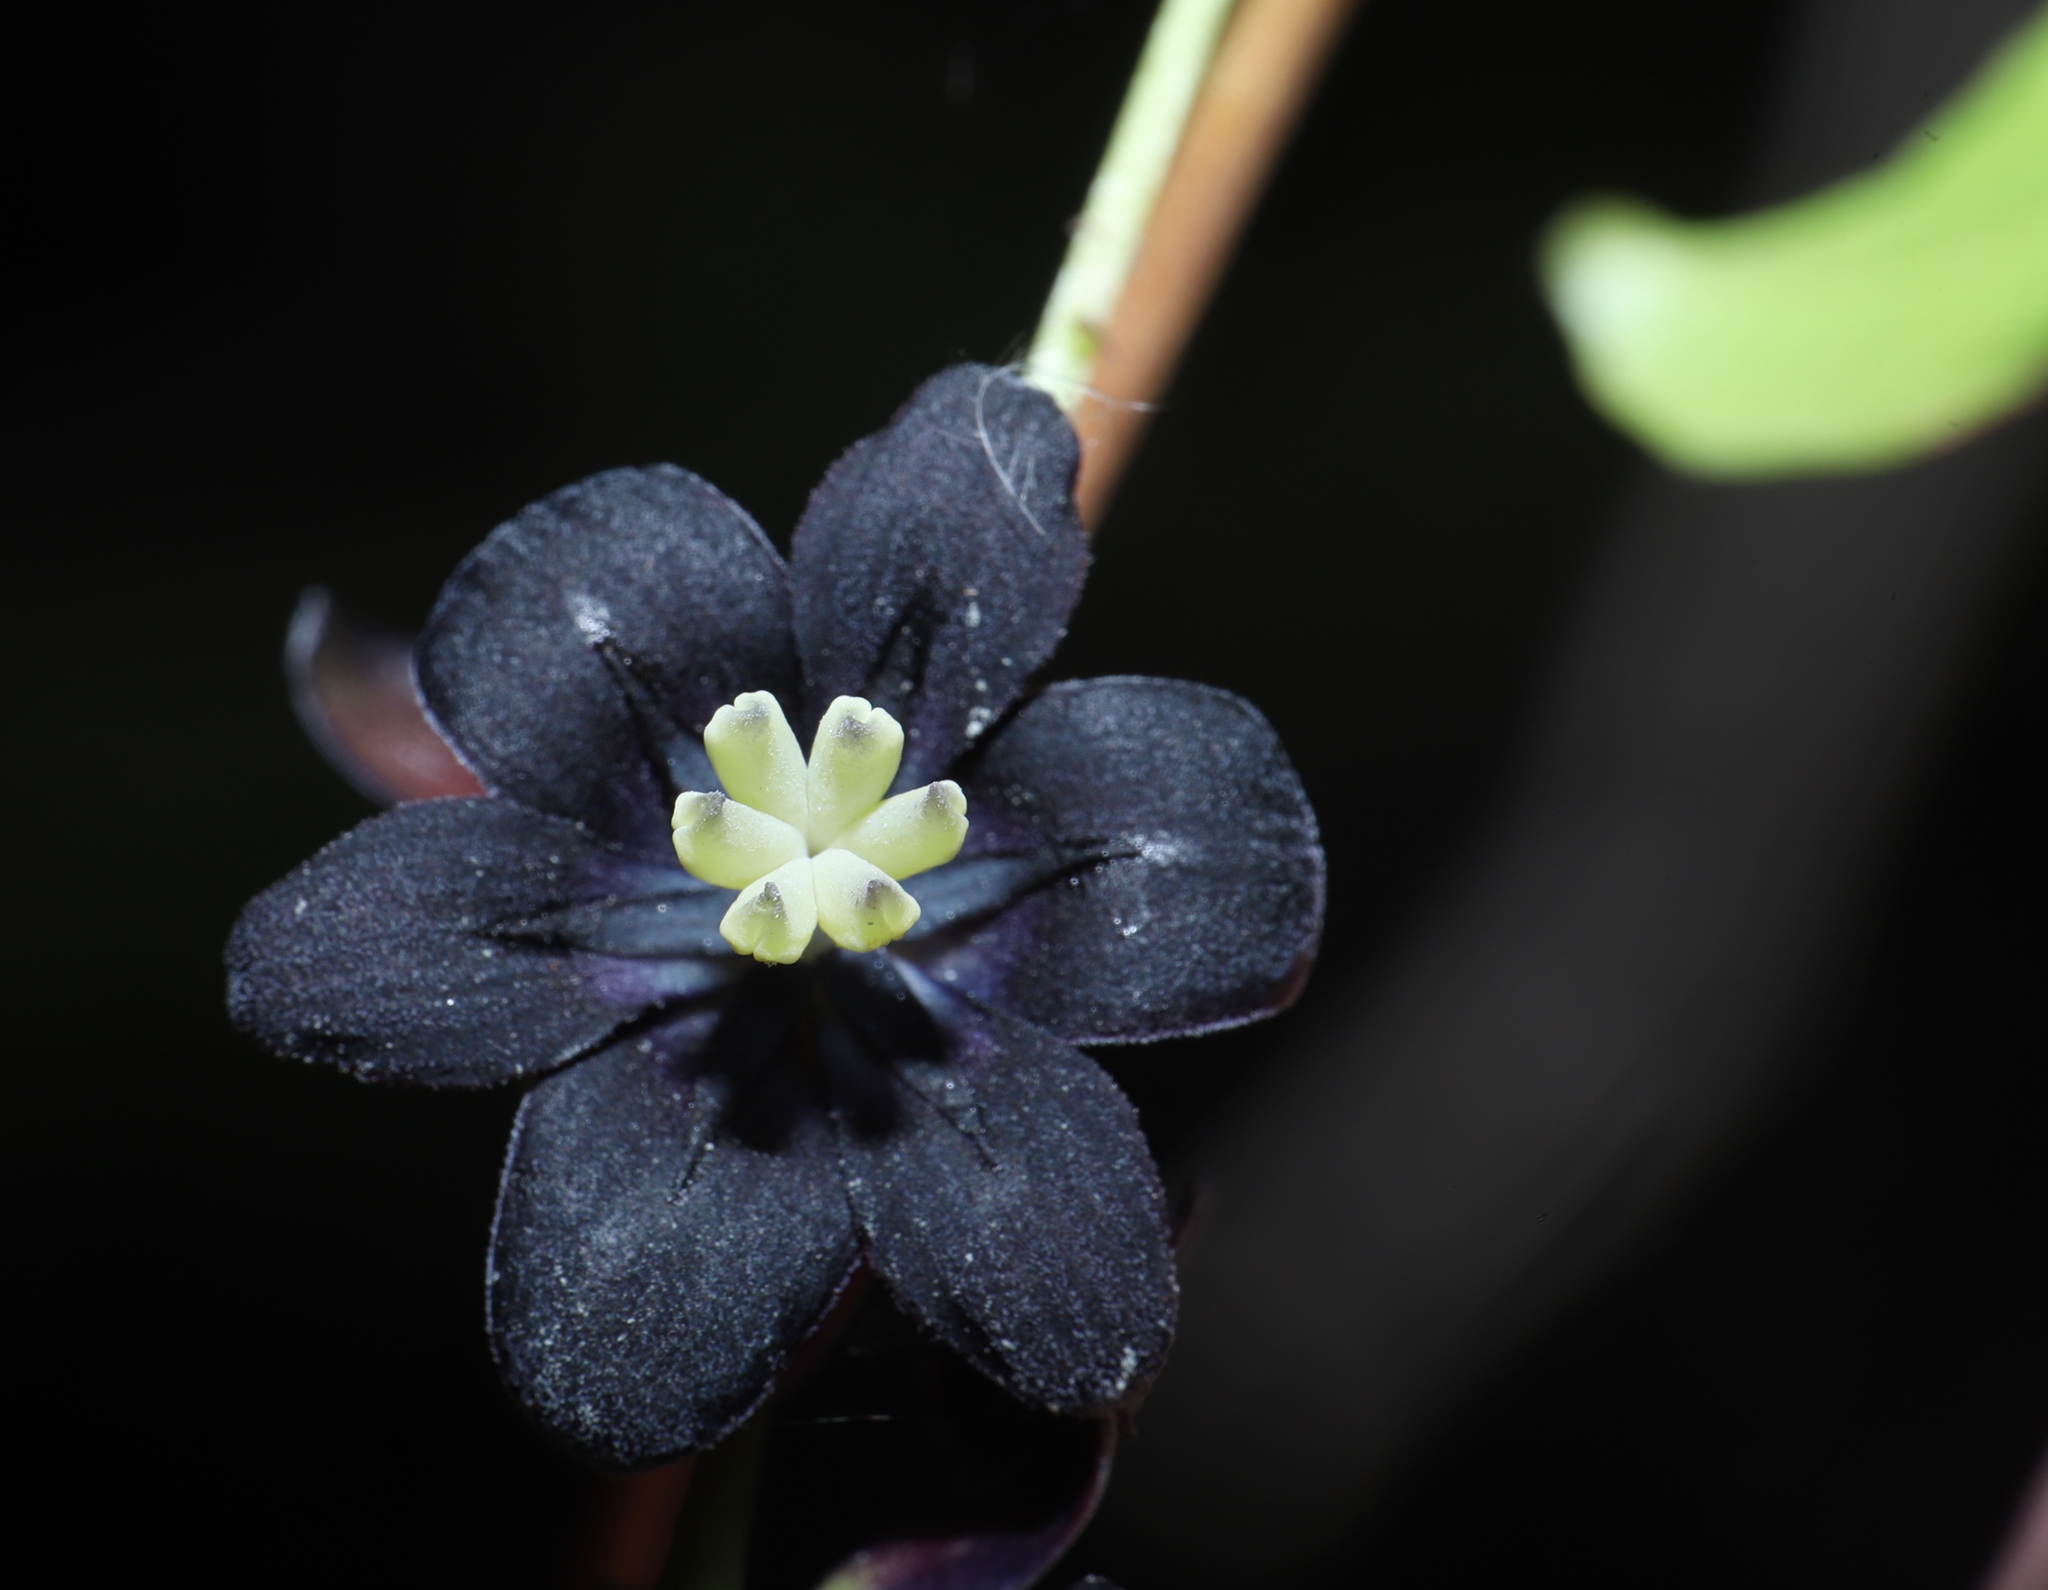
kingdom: Plantae
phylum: Tracheophyta
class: Magnoliopsida
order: Ranunculales
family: Lardizabalaceae
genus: Lardizabala
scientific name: Lardizabala funaria
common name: Zabala
